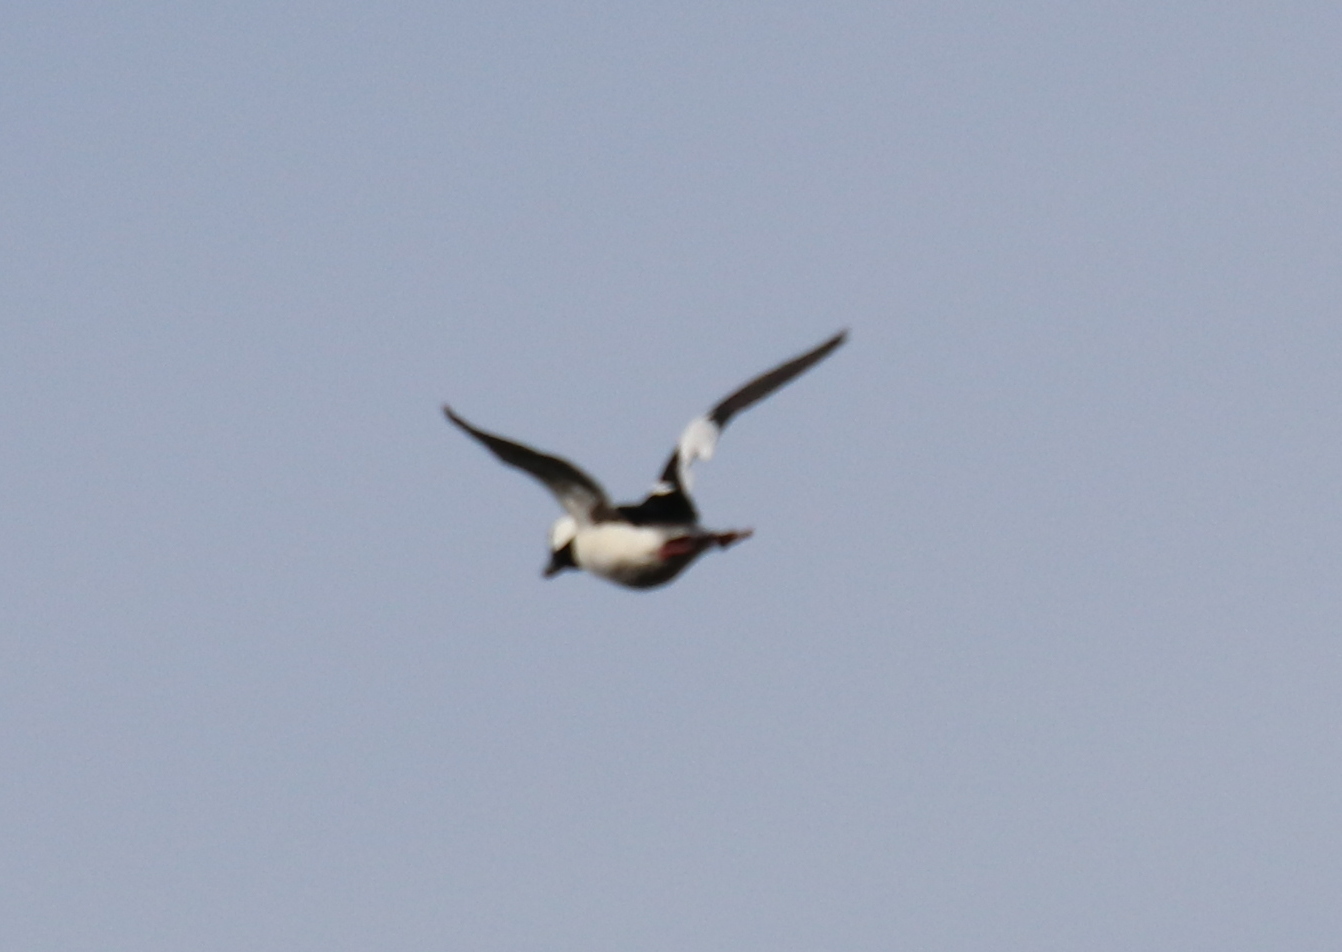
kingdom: Animalia
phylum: Chordata
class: Aves
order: Anseriformes
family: Anatidae
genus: Bucephala
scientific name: Bucephala albeola
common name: Bufflehead
